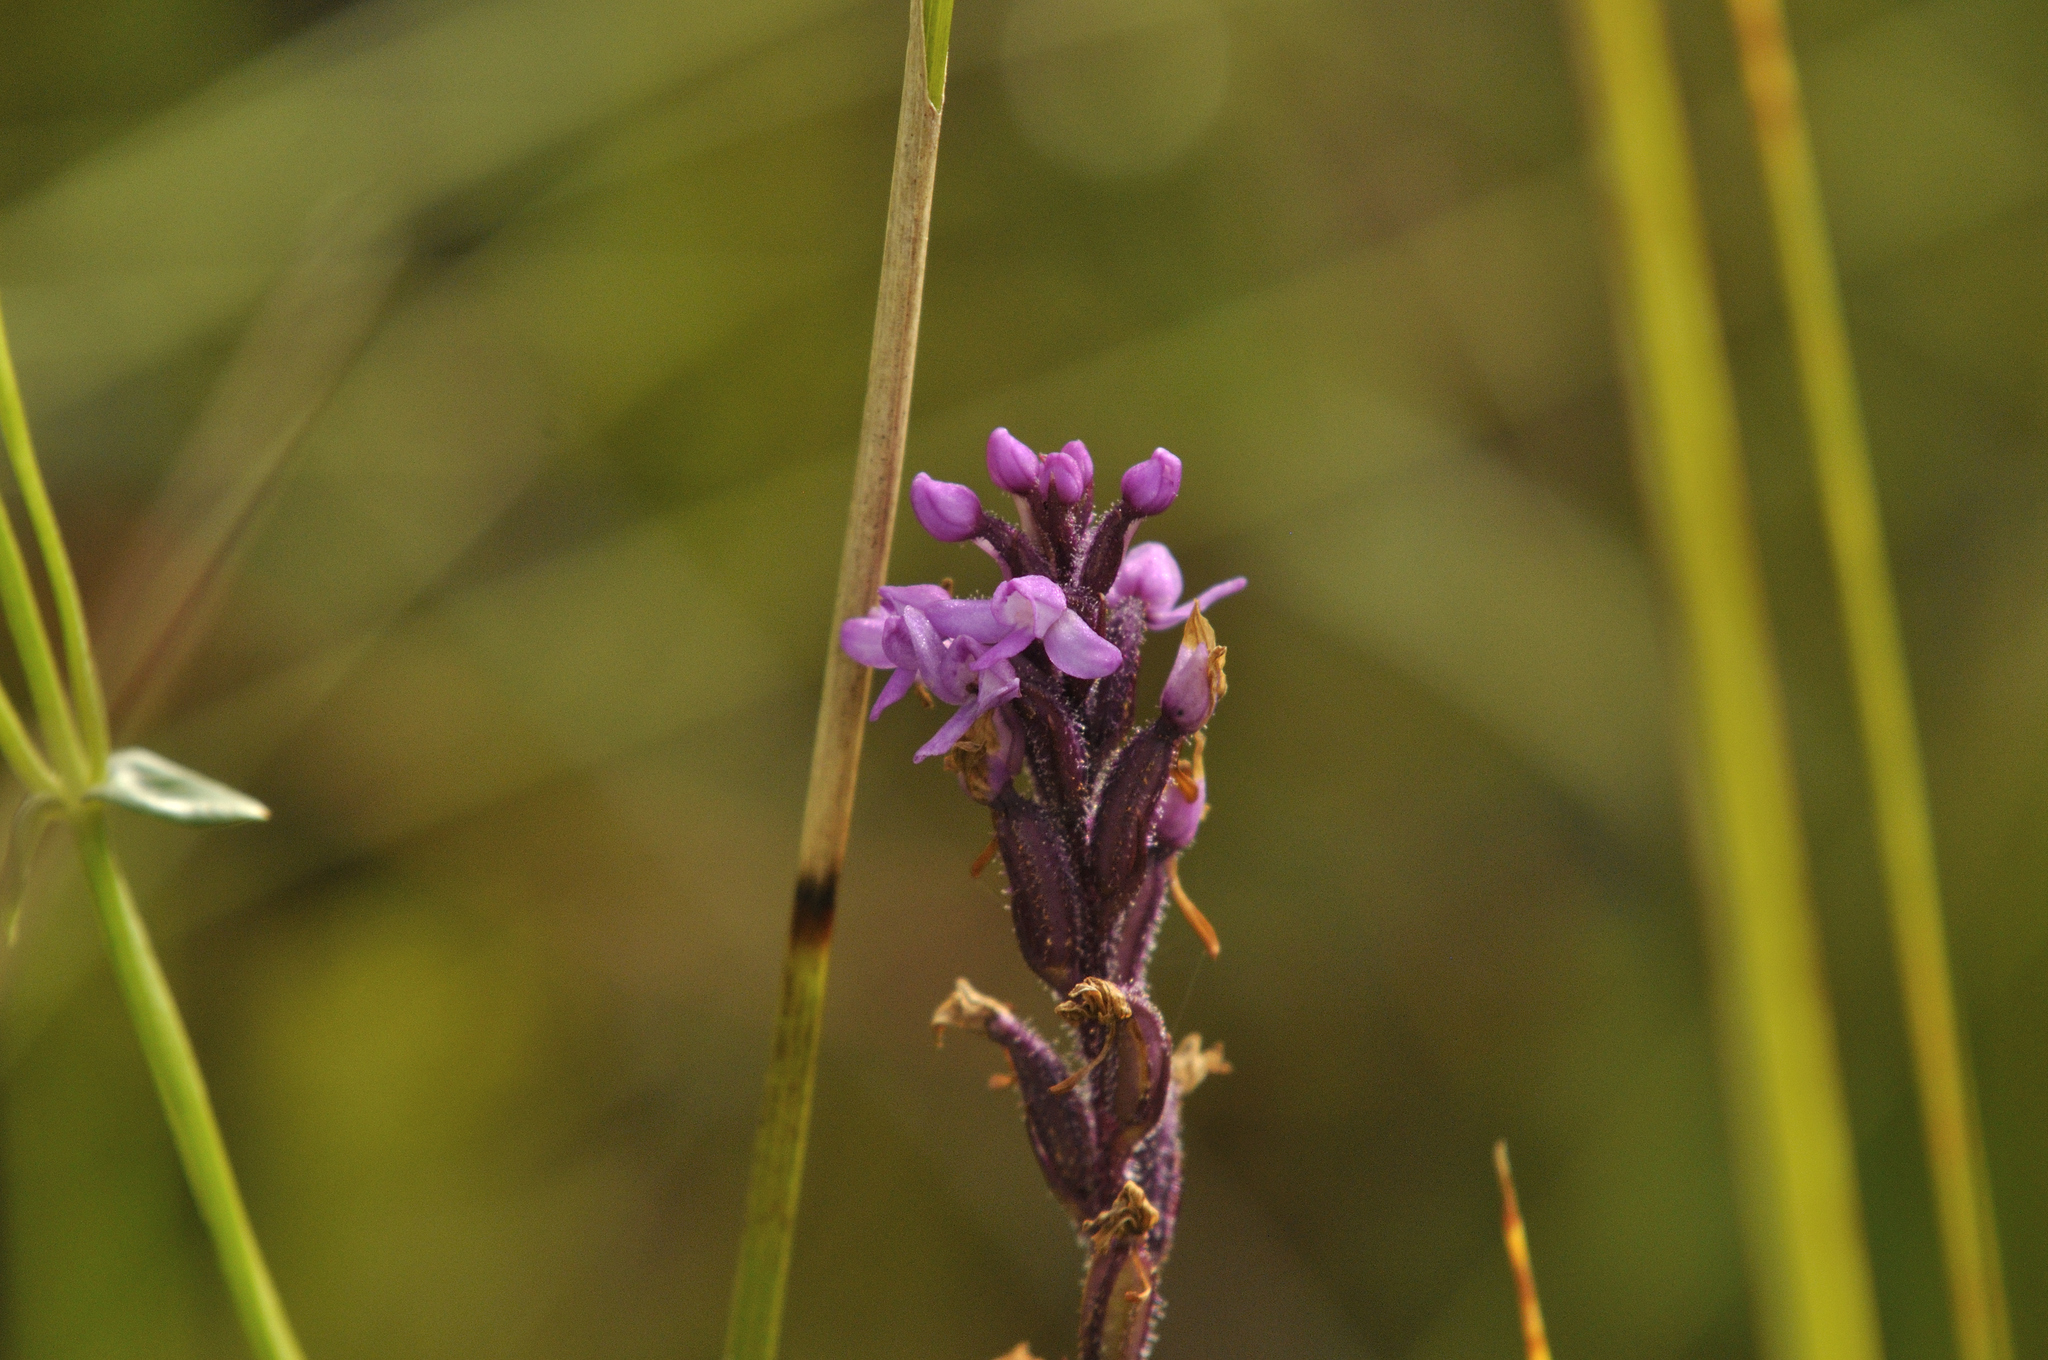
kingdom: Plantae
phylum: Tracheophyta
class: Liliopsida
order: Asparagales
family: Orchidaceae
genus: Cynorkis
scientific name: Cynorkis anacamptoides
